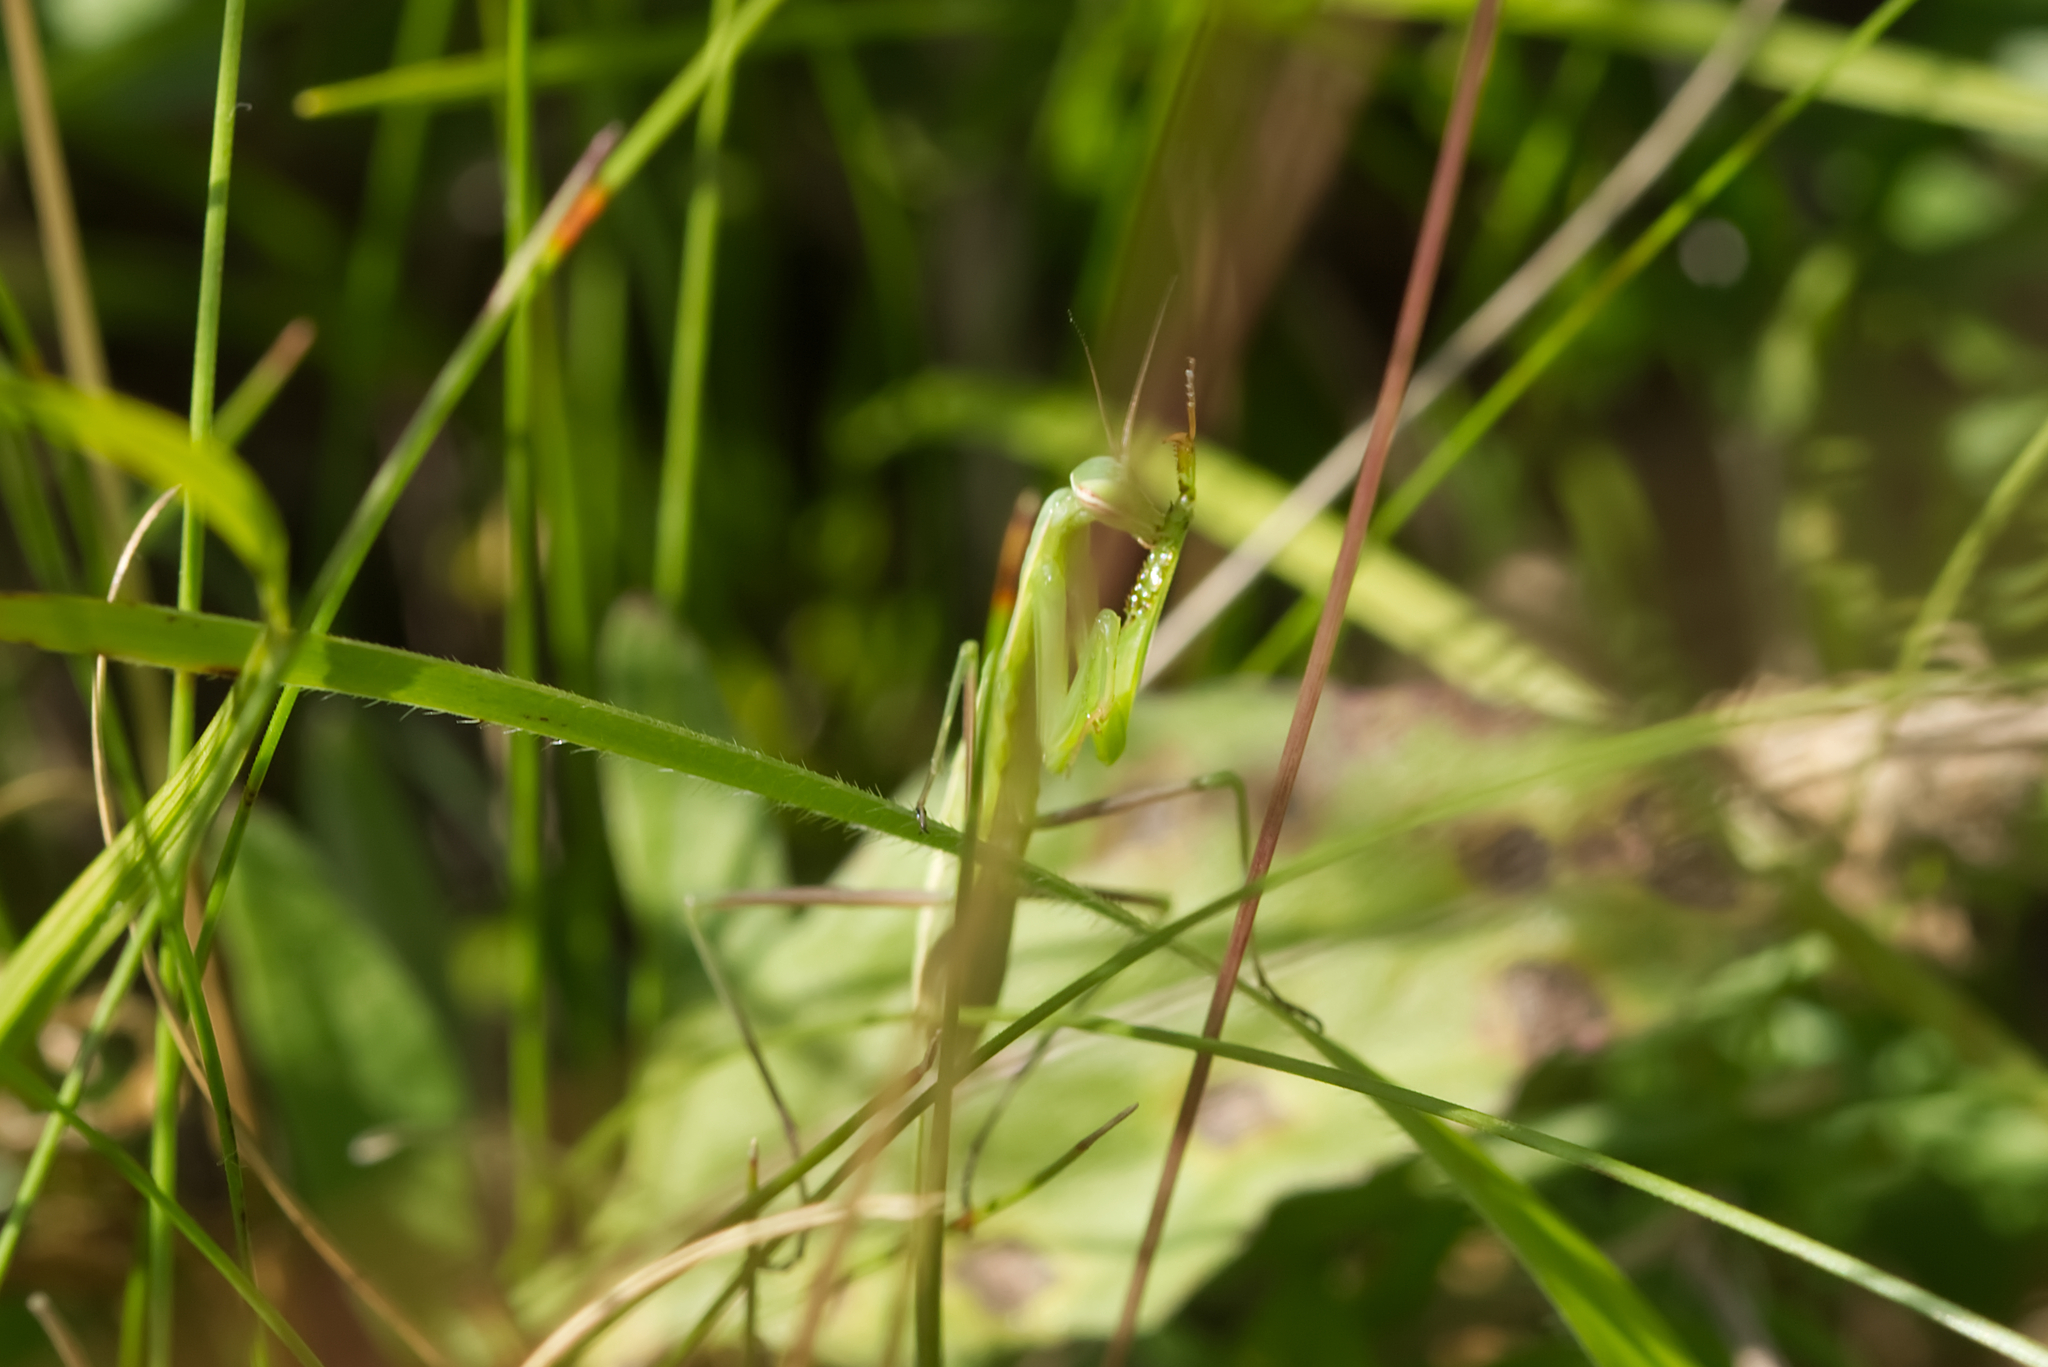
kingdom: Animalia
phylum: Arthropoda
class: Insecta
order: Mantodea
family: Mantidae
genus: Mantis
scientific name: Mantis religiosa
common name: Praying mantis
